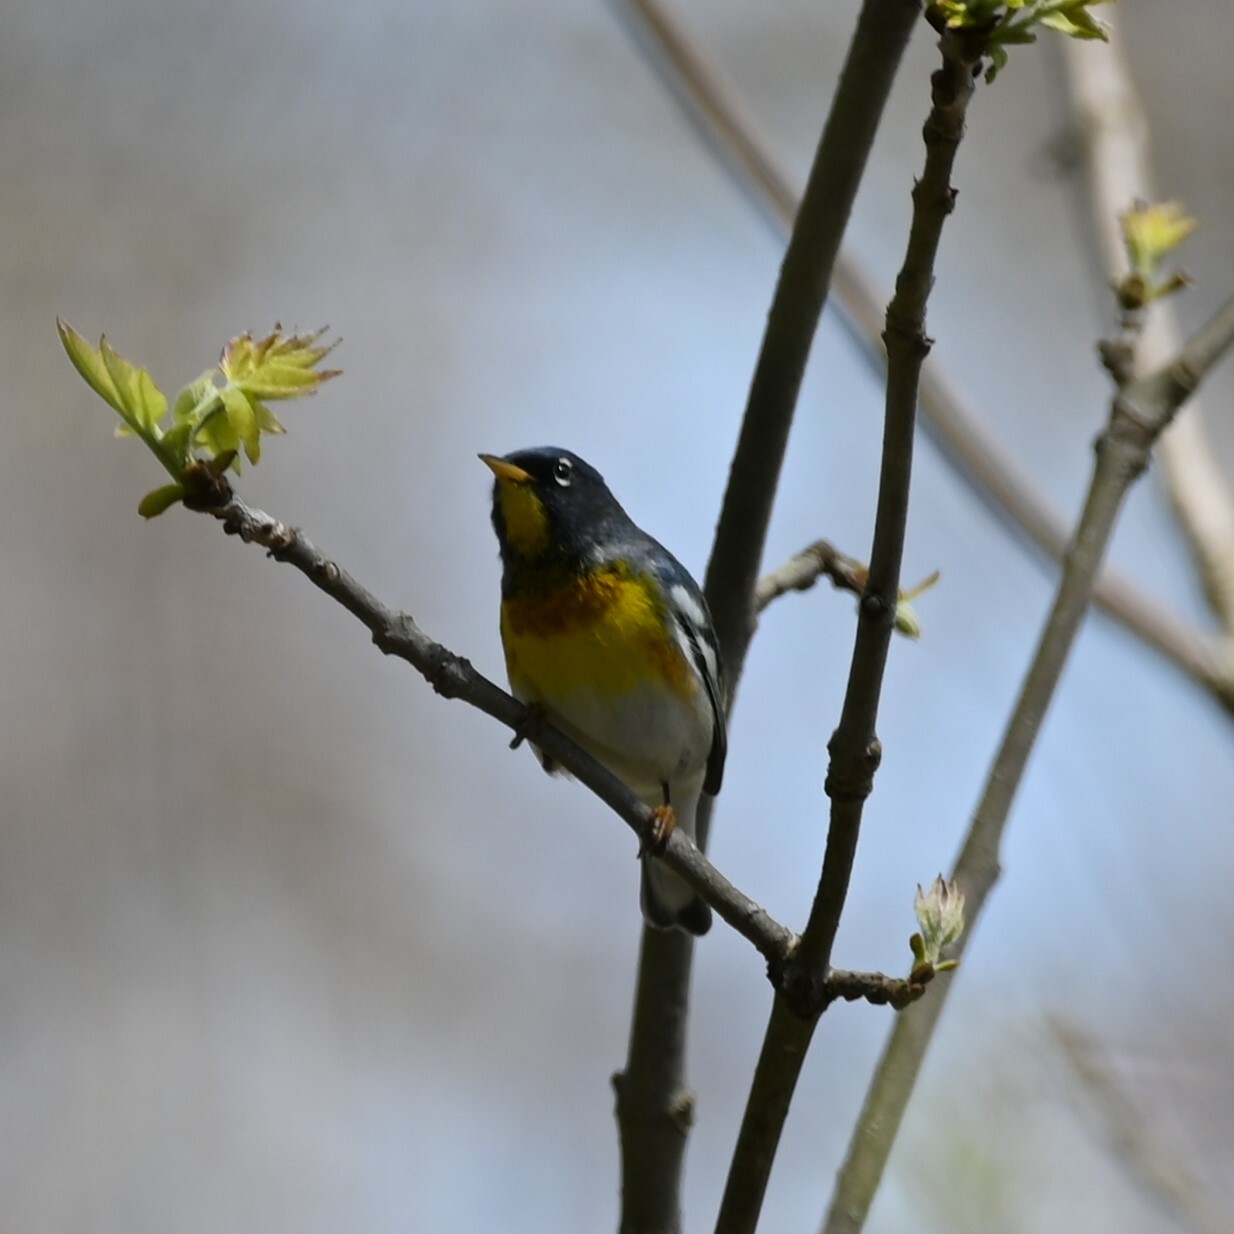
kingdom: Animalia
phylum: Chordata
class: Aves
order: Passeriformes
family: Parulidae
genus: Setophaga
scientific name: Setophaga americana
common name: Northern parula
